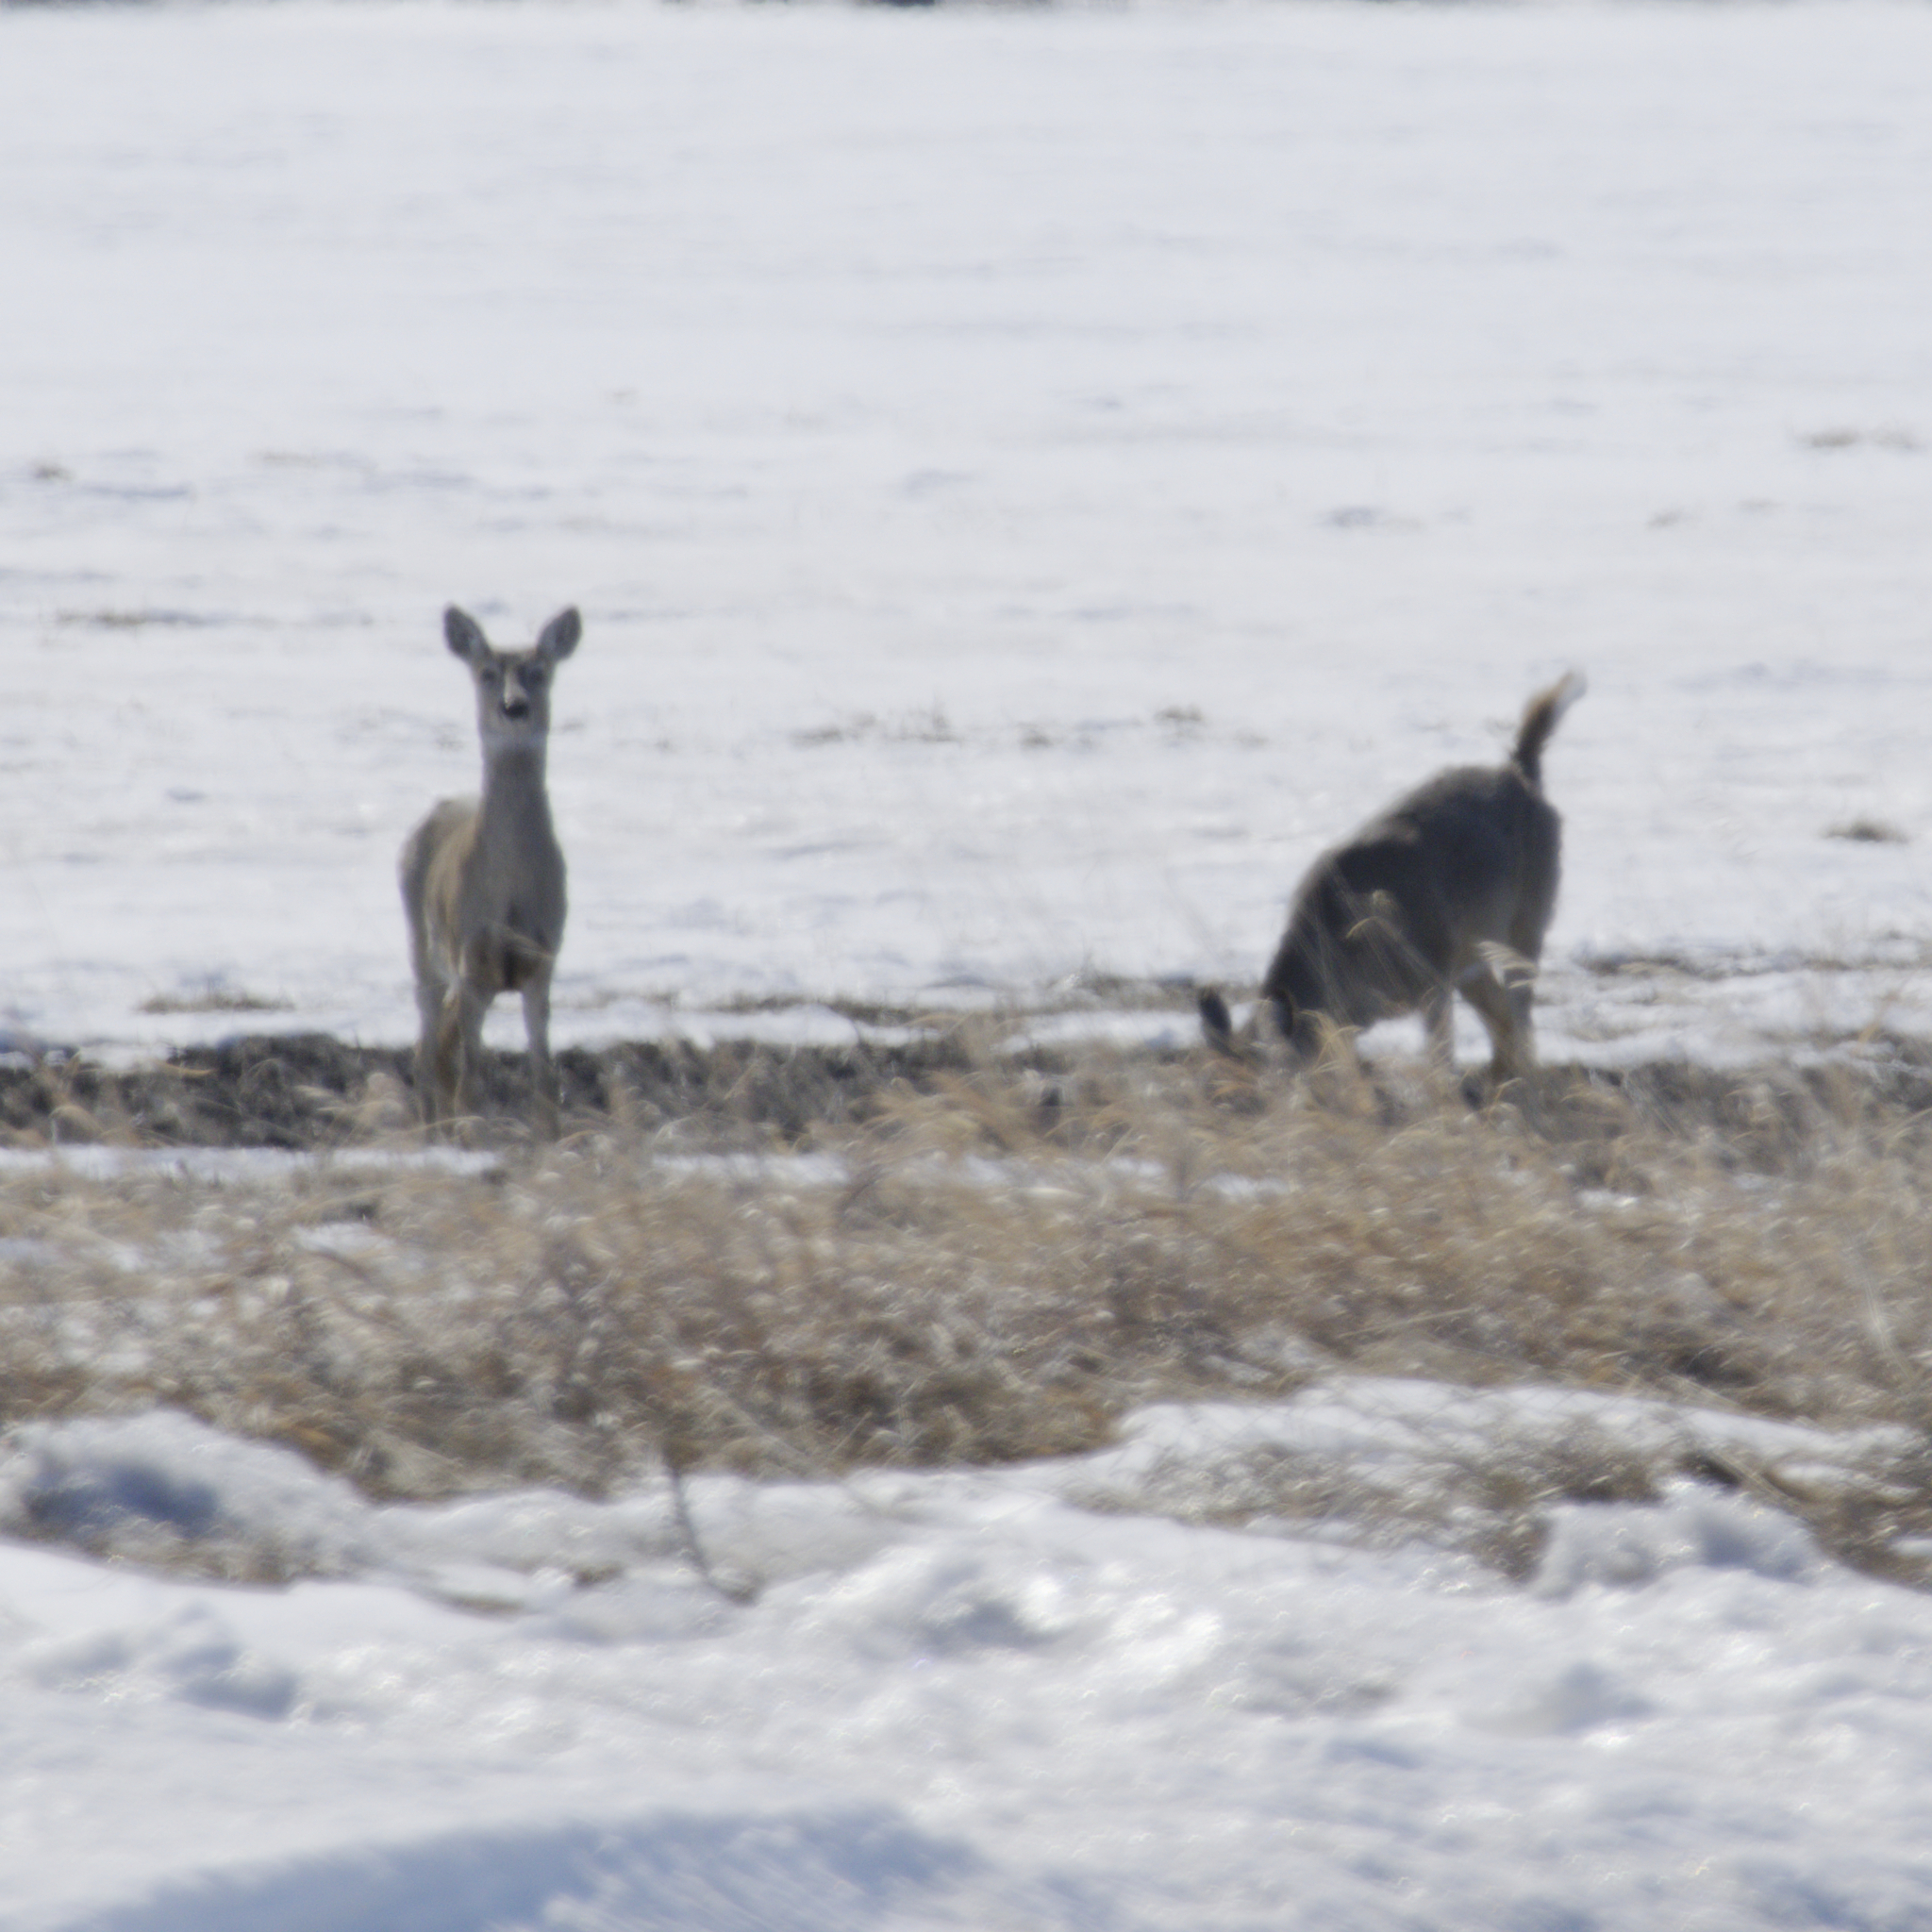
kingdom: Animalia
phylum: Chordata
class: Mammalia
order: Artiodactyla
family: Cervidae
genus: Odocoileus
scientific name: Odocoileus virginianus
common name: White-tailed deer
